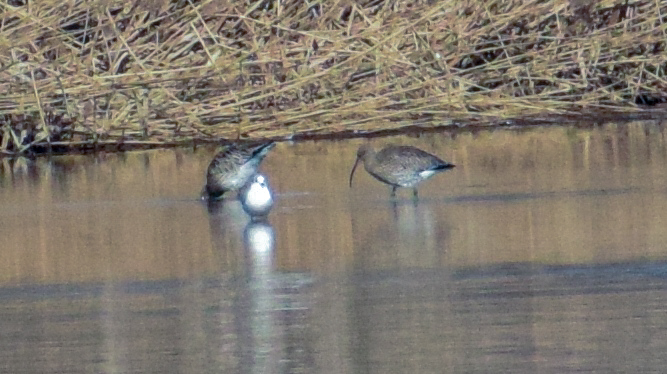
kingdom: Animalia
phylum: Chordata
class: Aves
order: Charadriiformes
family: Scolopacidae
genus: Numenius
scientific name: Numenius arquata
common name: Eurasian curlew
